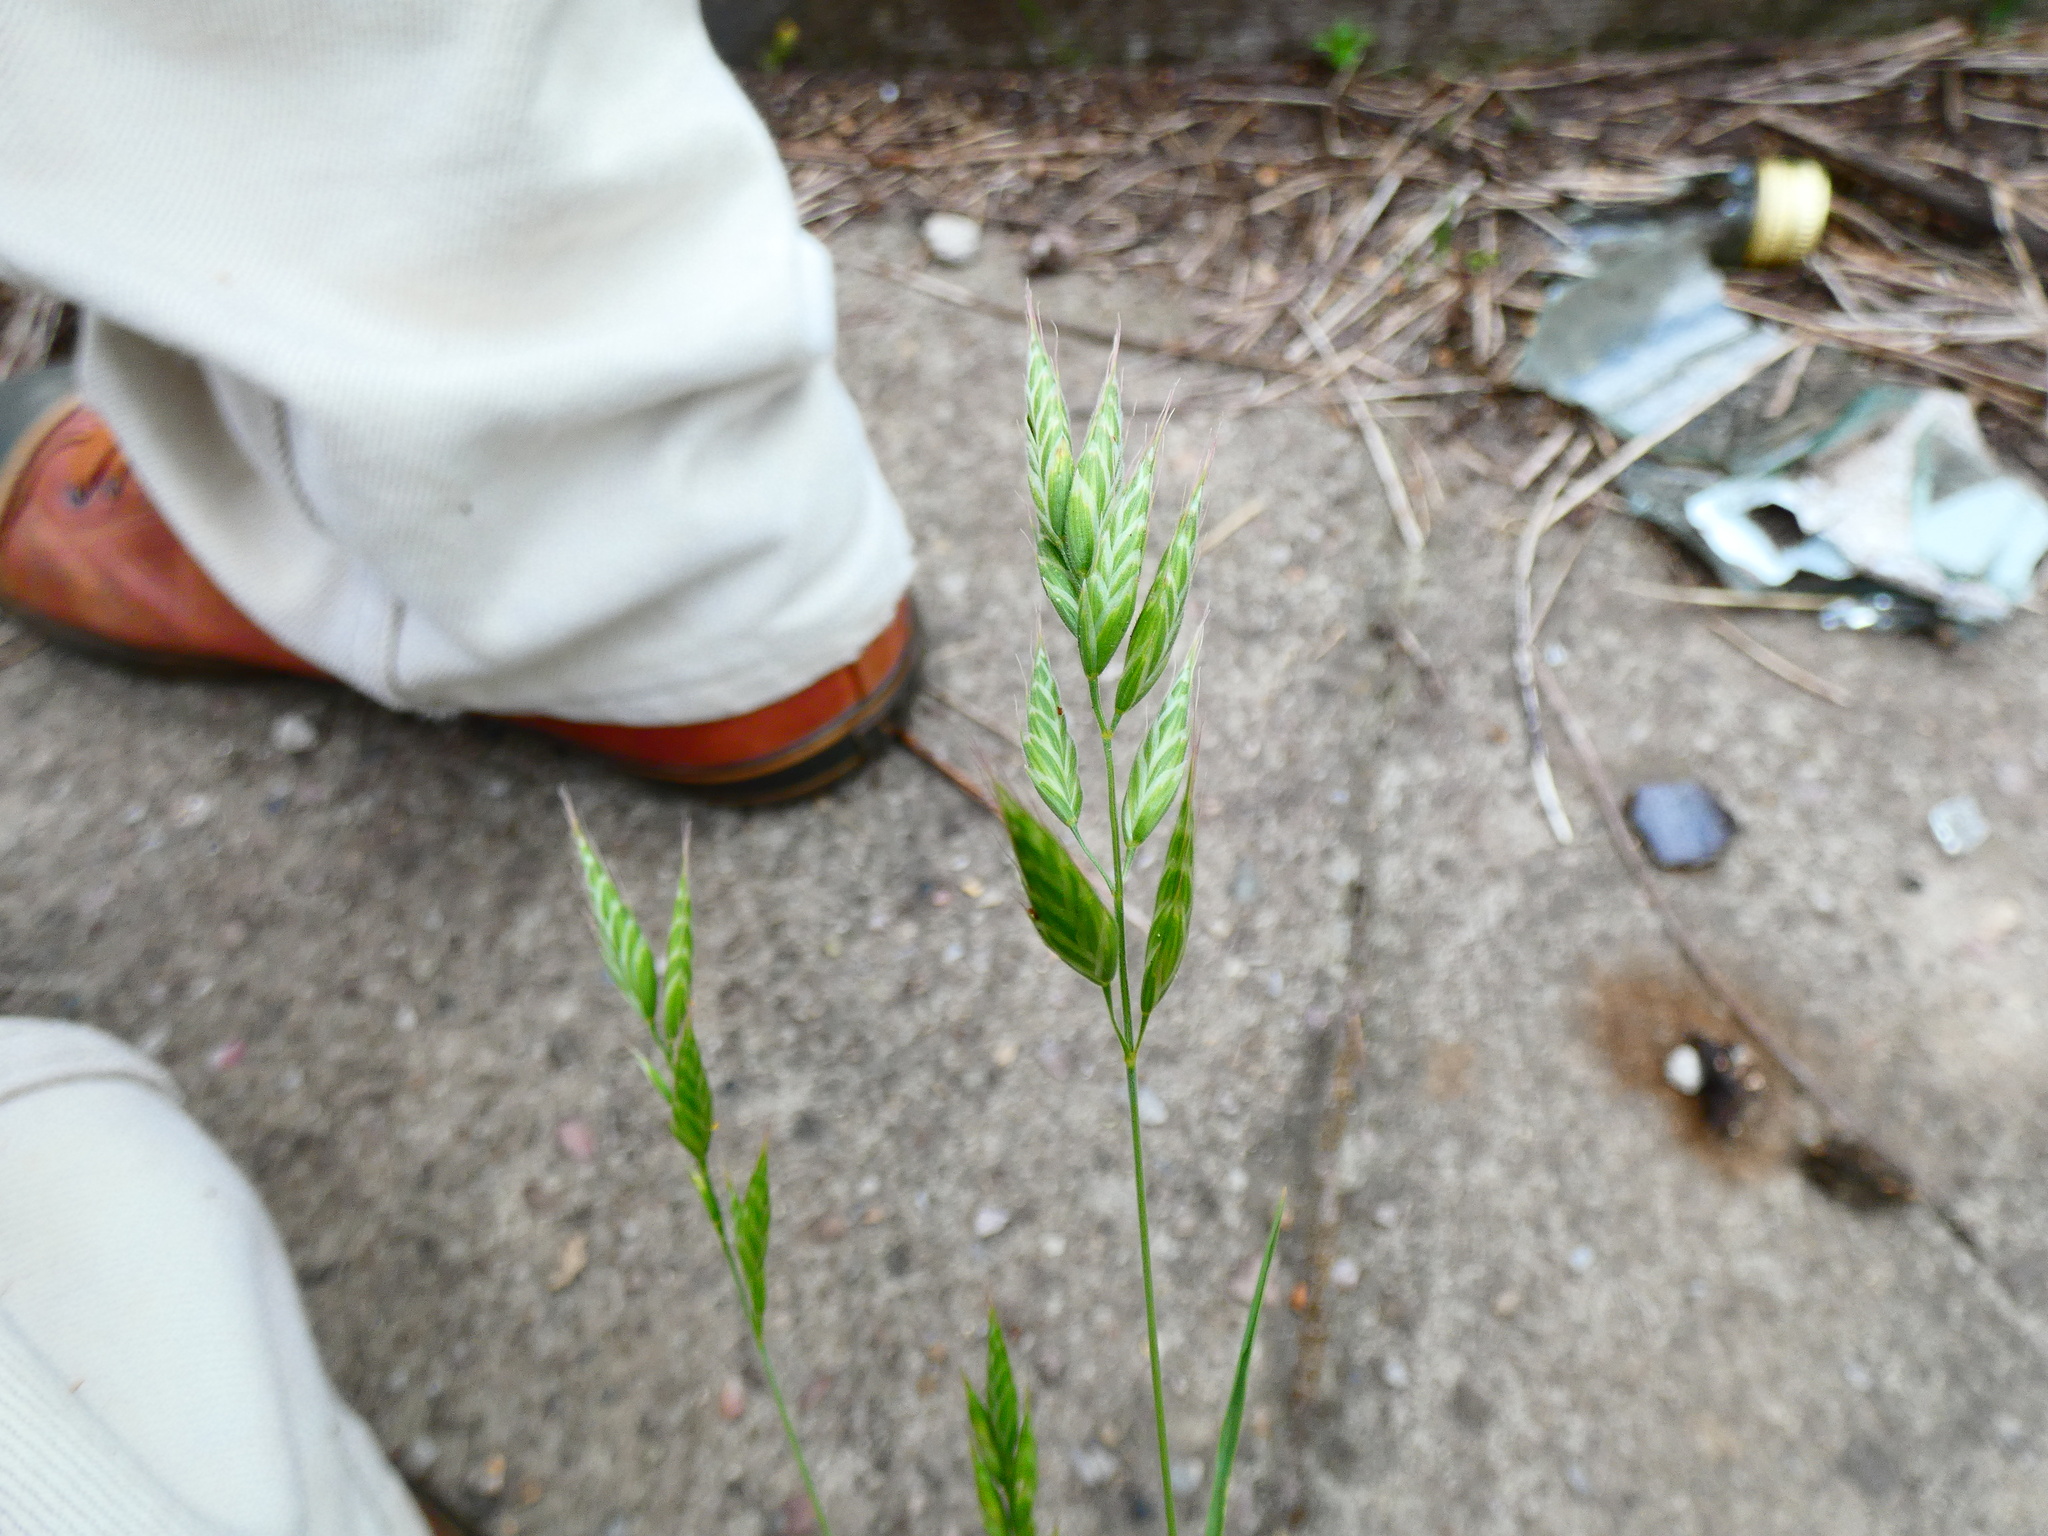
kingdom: Plantae
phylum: Tracheophyta
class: Liliopsida
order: Poales
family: Poaceae
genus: Bromus
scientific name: Bromus hordeaceus
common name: Soft brome
